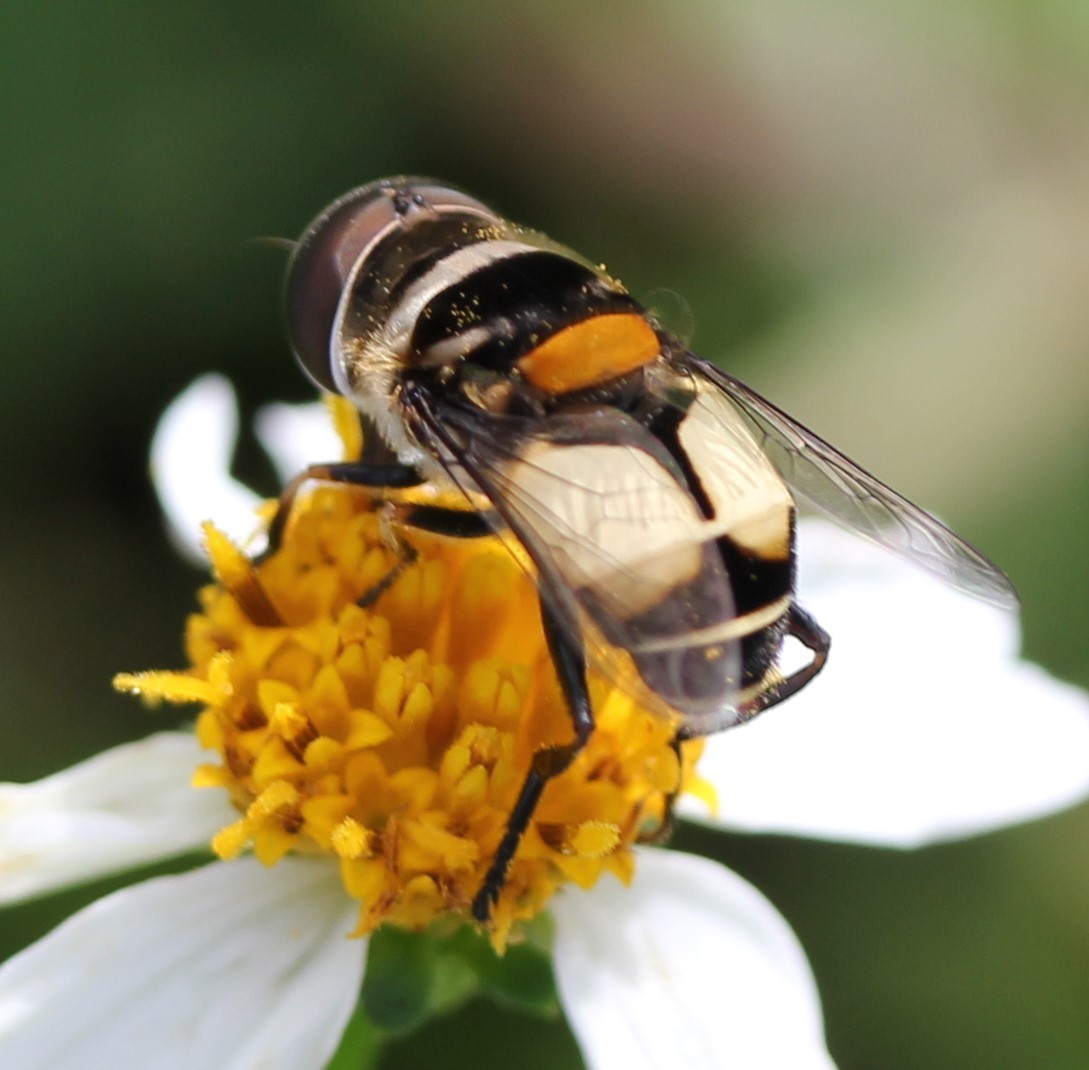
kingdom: Animalia
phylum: Arthropoda
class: Insecta
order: Diptera
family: Syrphidae
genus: Palpada
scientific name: Palpada albifrons
